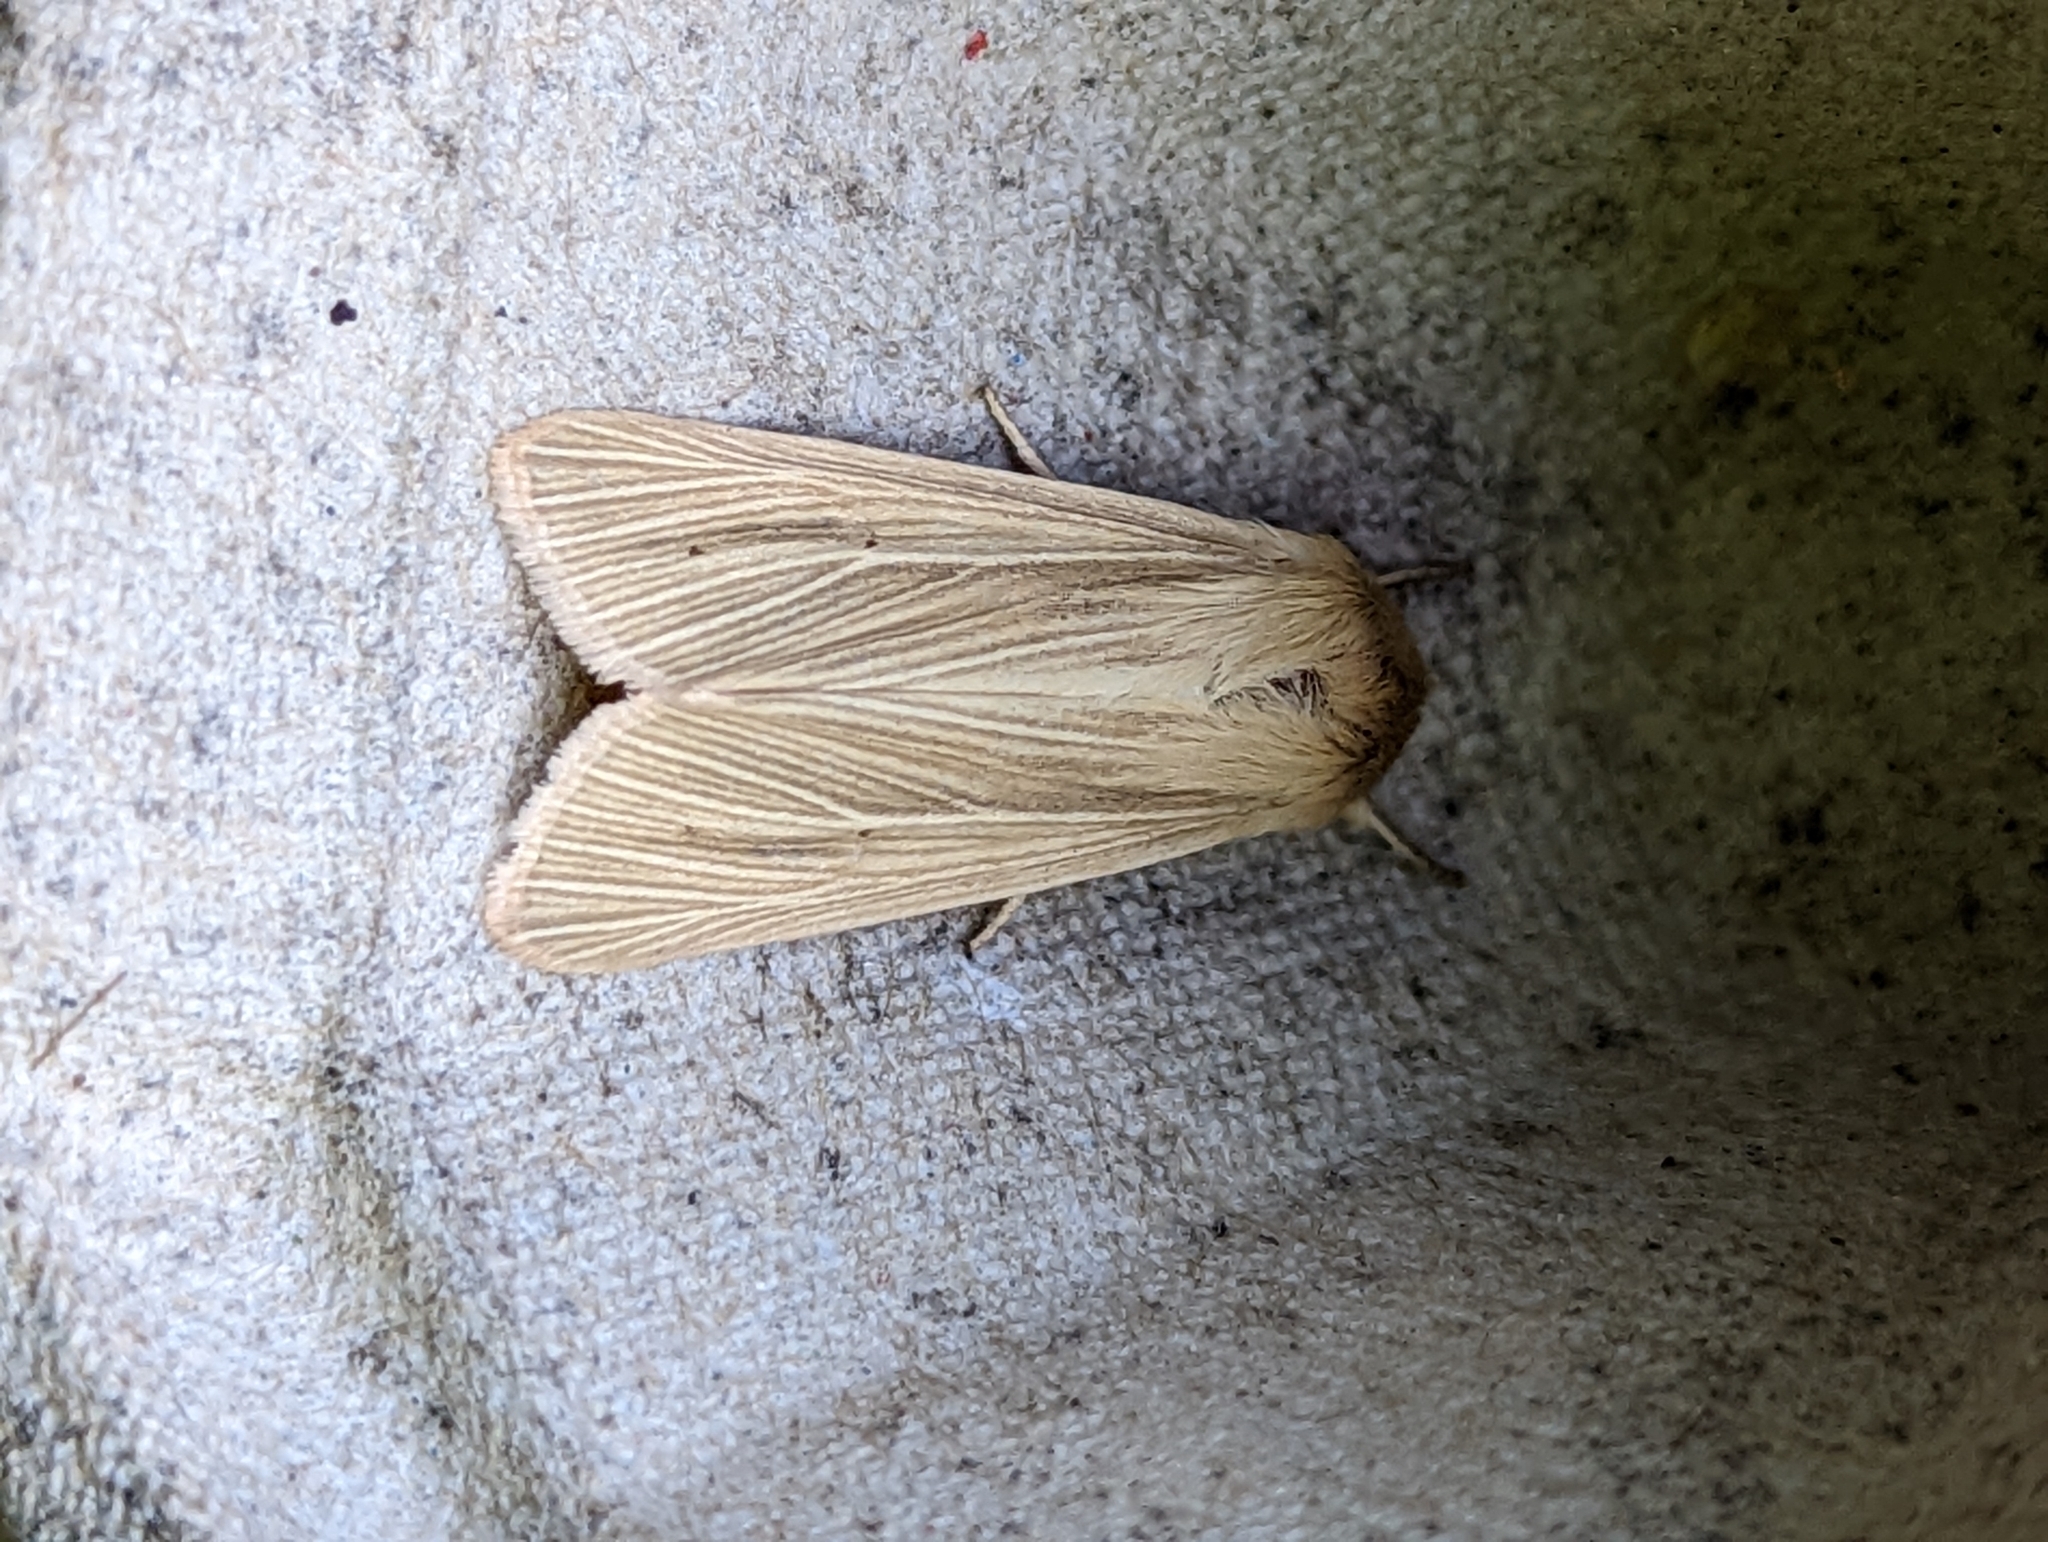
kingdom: Animalia
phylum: Arthropoda
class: Insecta
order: Lepidoptera
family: Noctuidae
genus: Mythimna
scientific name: Mythimna pallens
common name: Common wainscot
